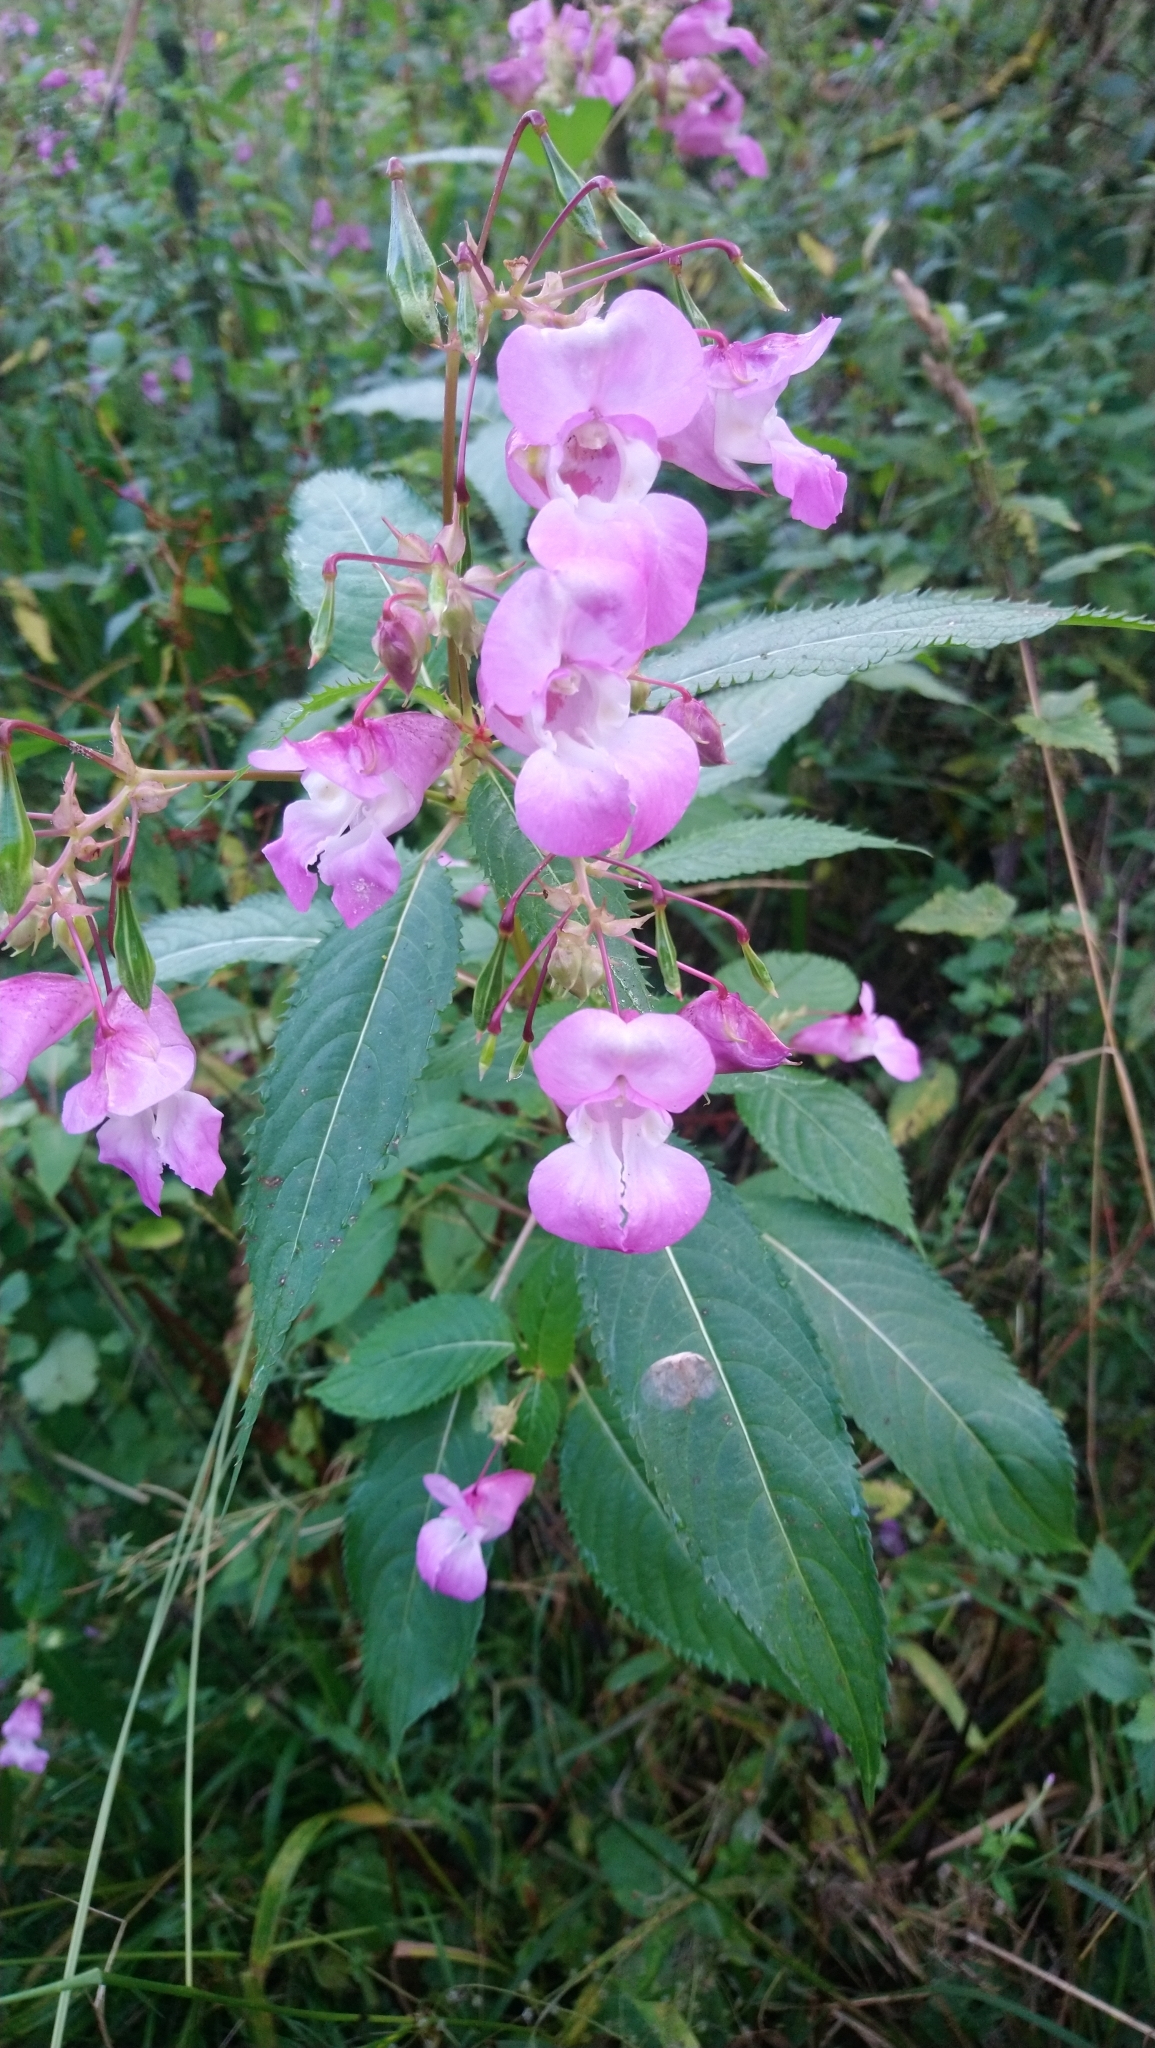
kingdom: Plantae
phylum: Tracheophyta
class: Magnoliopsida
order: Ericales
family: Balsaminaceae
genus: Impatiens
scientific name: Impatiens glandulifera
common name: Himalayan balsam
